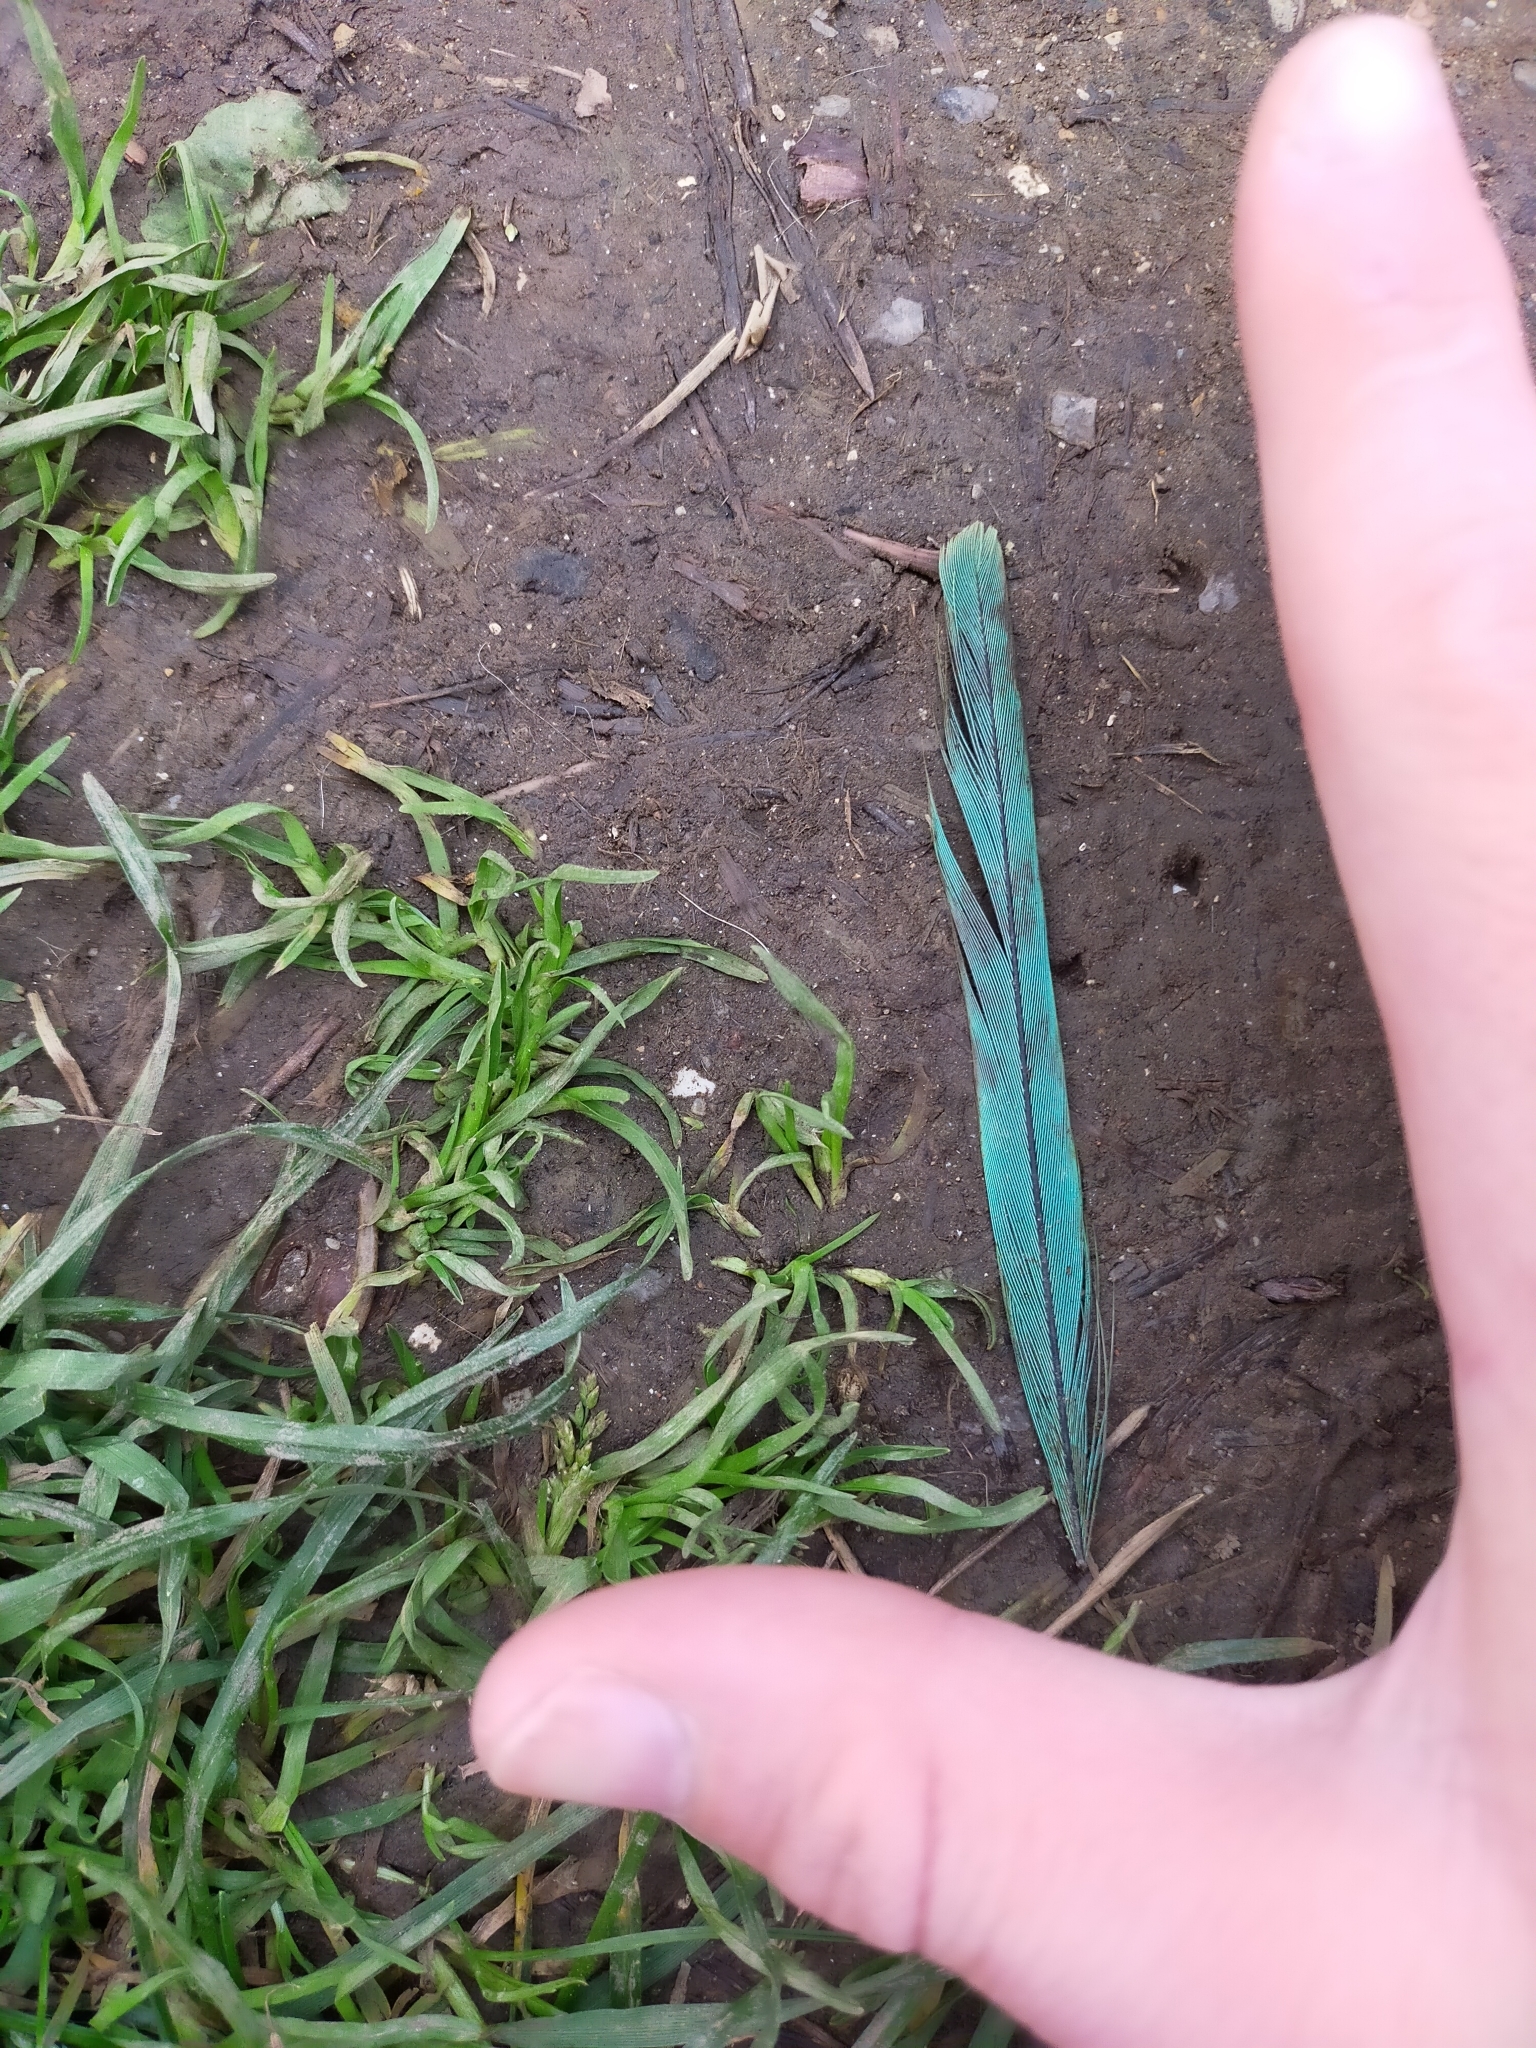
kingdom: Animalia
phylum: Chordata
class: Aves
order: Psittaciformes
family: Psittacidae
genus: Psittacula
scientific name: Psittacula krameri
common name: Rose-ringed parakeet
